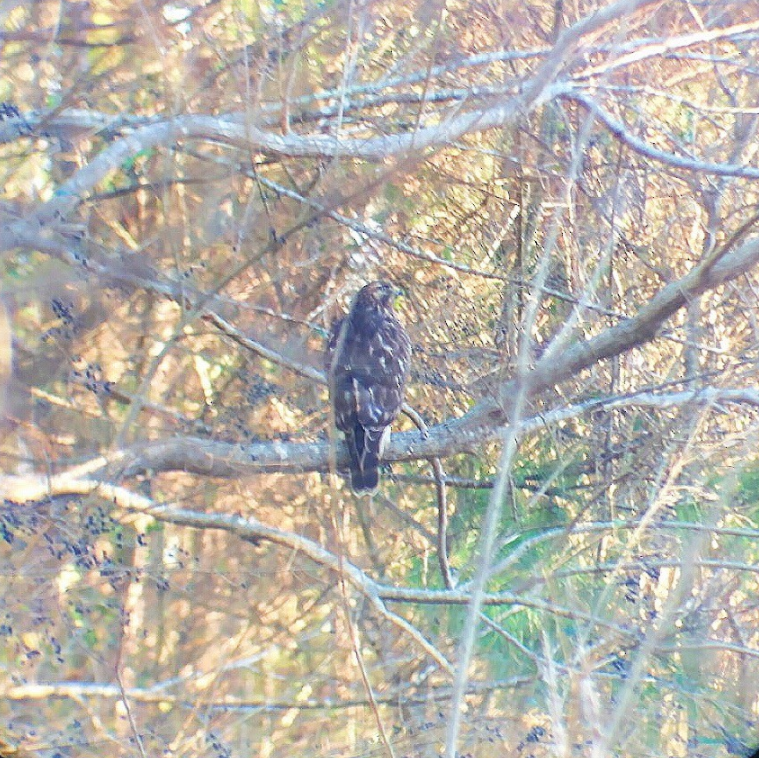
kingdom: Animalia
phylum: Chordata
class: Aves
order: Accipitriformes
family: Accipitridae
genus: Buteo
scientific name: Buteo lineatus
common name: Red-shouldered hawk
